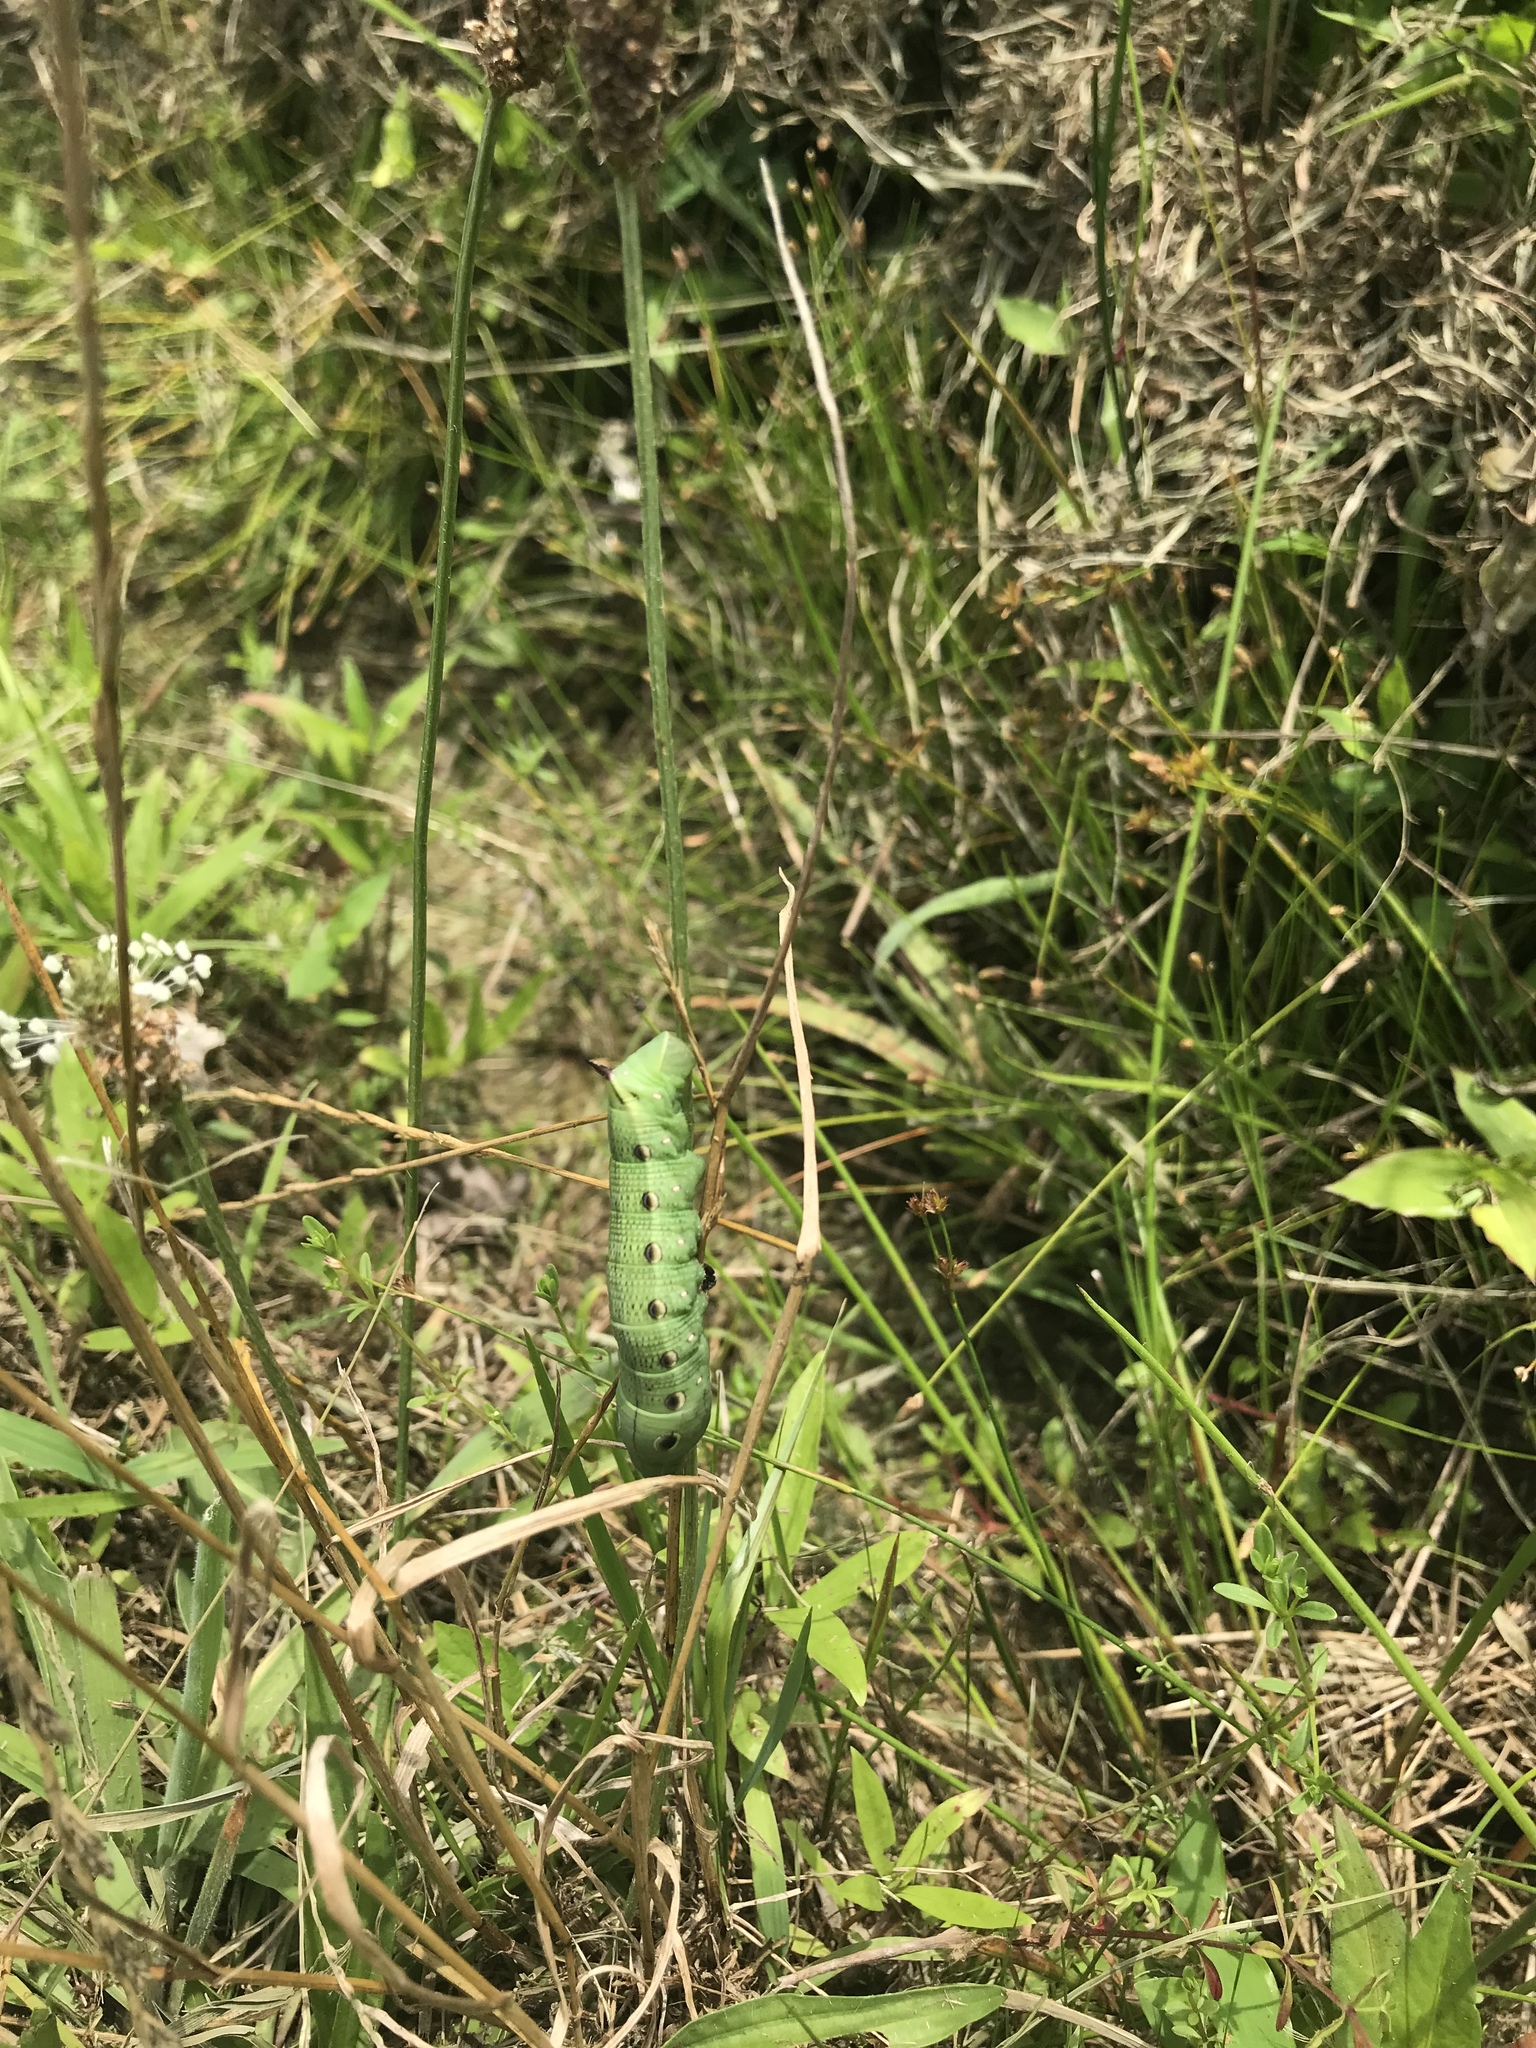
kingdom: Animalia
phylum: Arthropoda
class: Insecta
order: Lepidoptera
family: Sphingidae
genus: Xylophanes
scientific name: Xylophanes tersa
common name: Tersa sphinx
